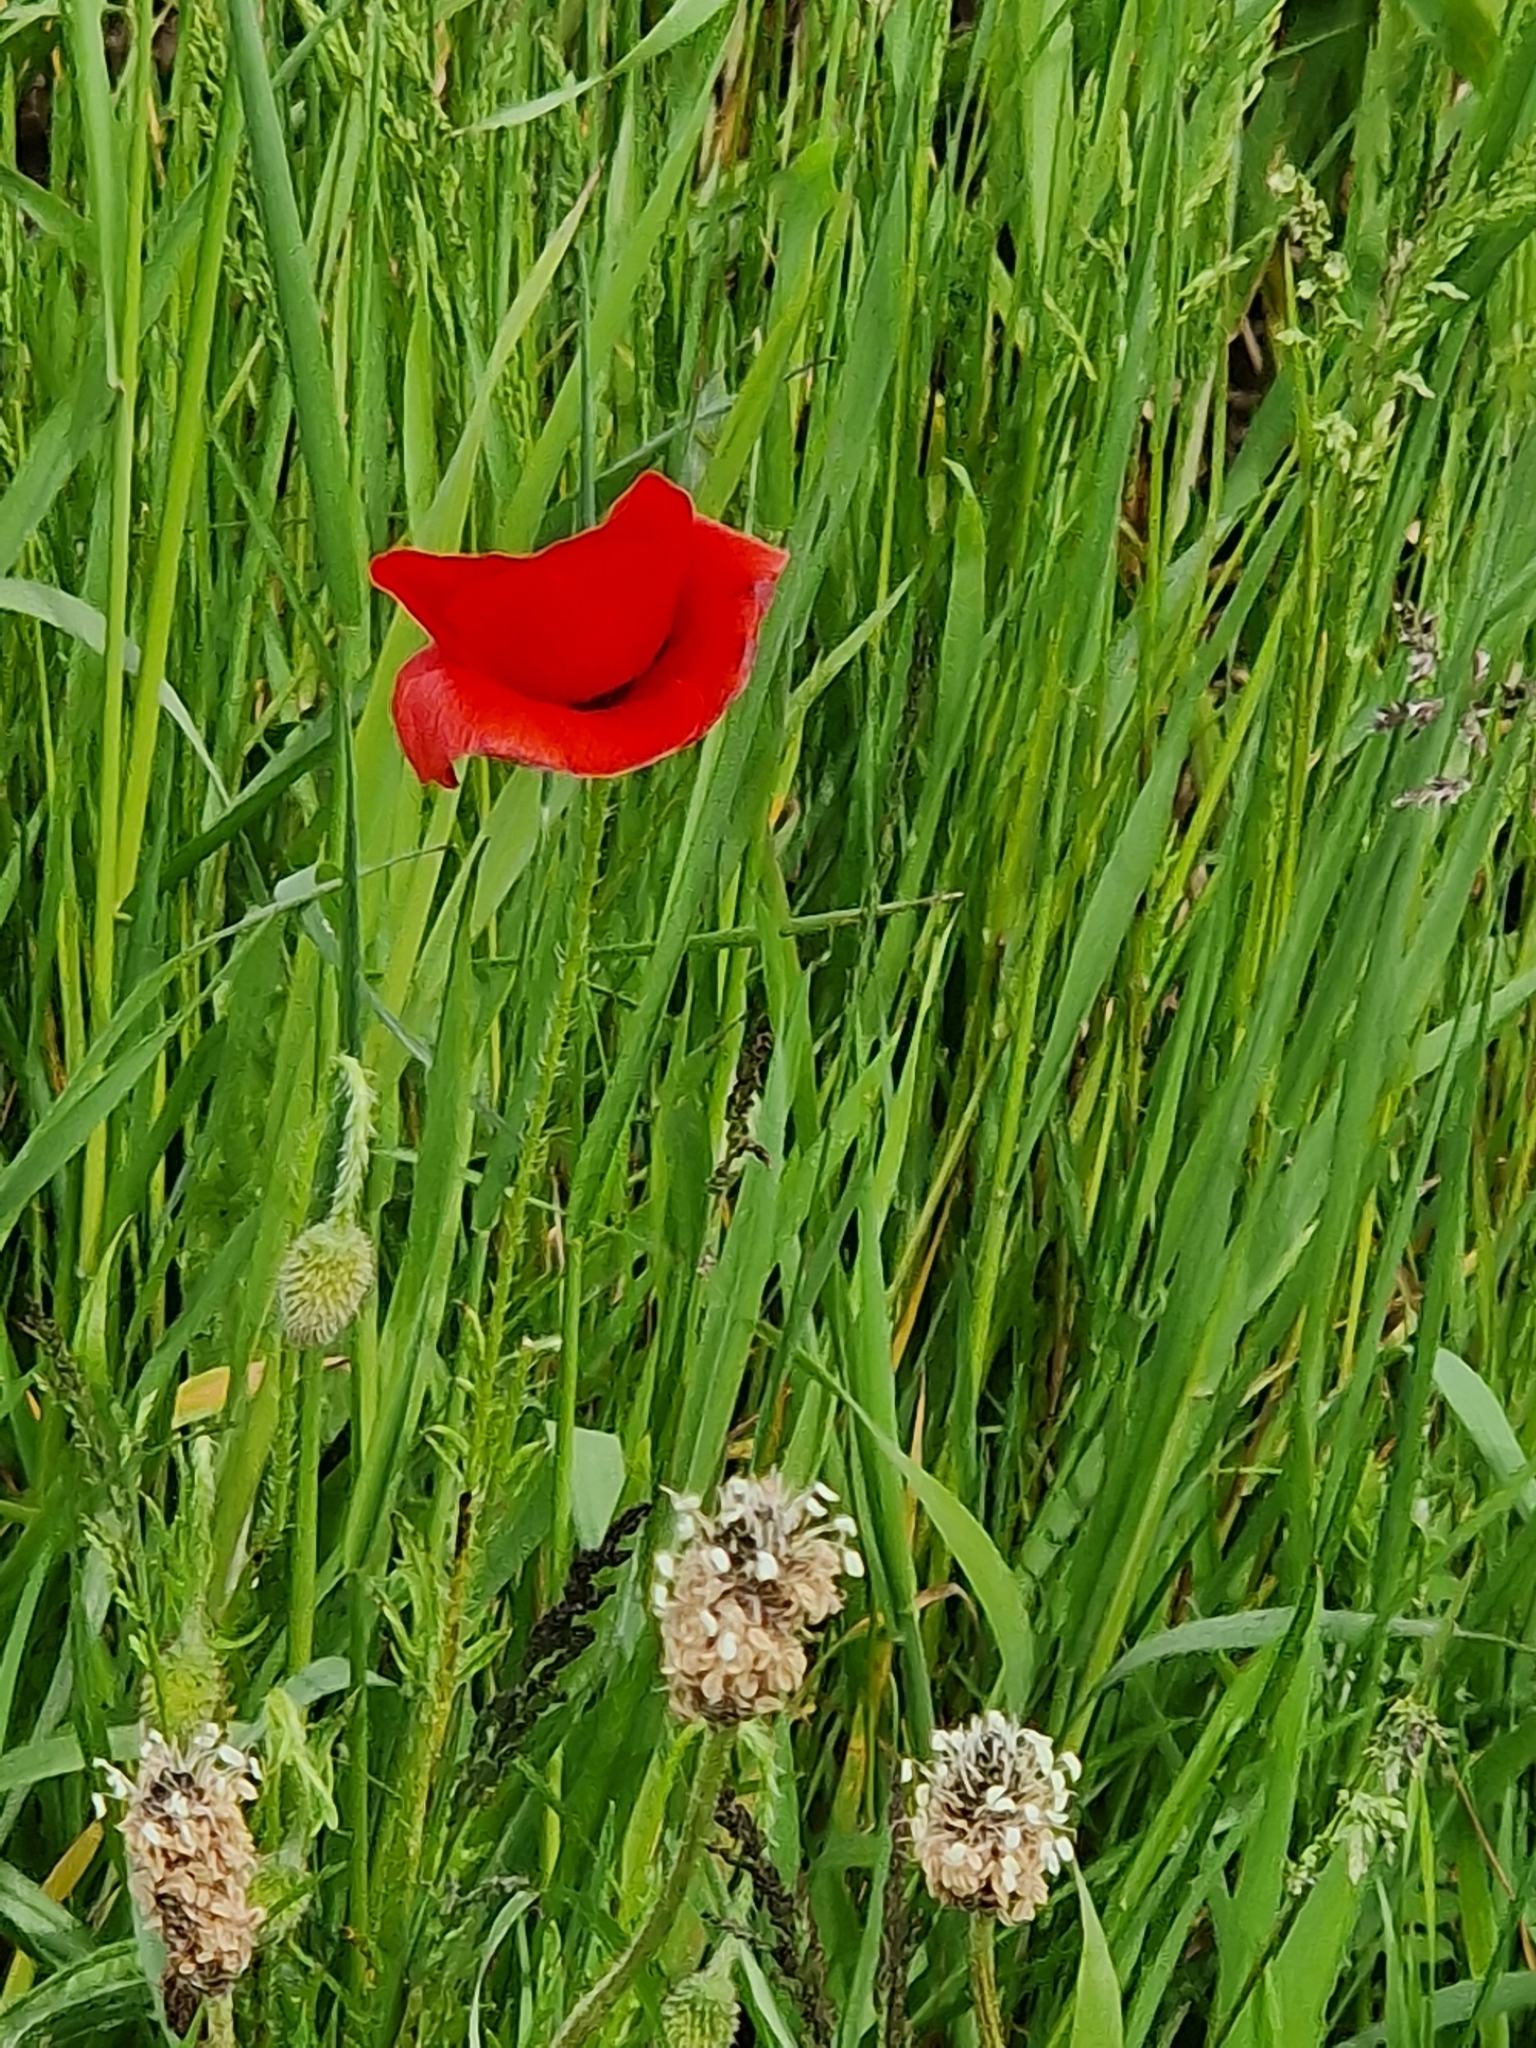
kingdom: Plantae
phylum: Tracheophyta
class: Magnoliopsida
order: Ranunculales
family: Papaveraceae
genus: Papaver
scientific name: Papaver rhoeas
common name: Corn poppy
